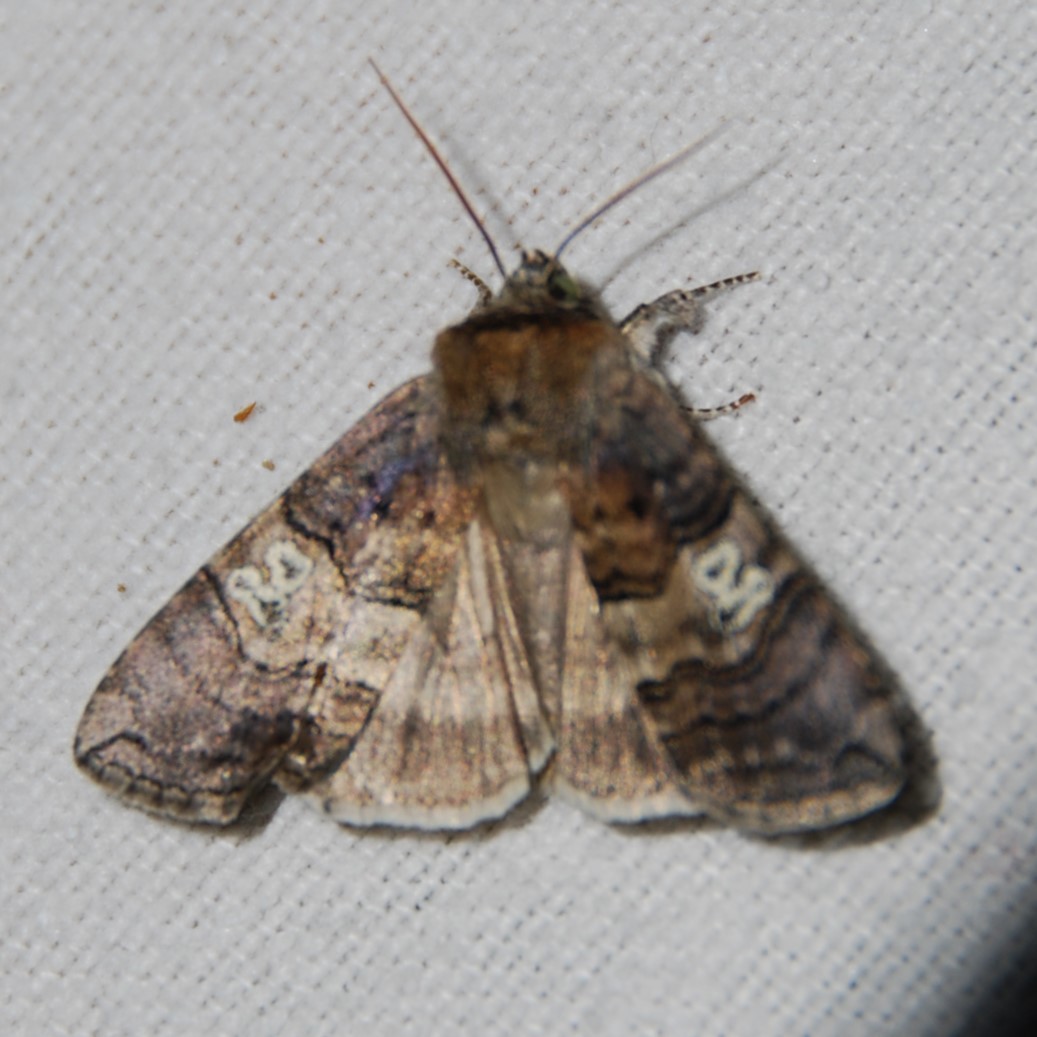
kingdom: Animalia
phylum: Arthropoda
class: Insecta
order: Lepidoptera
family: Drepanidae
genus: Tethea
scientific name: Tethea ocularis
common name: Figure of eighty
